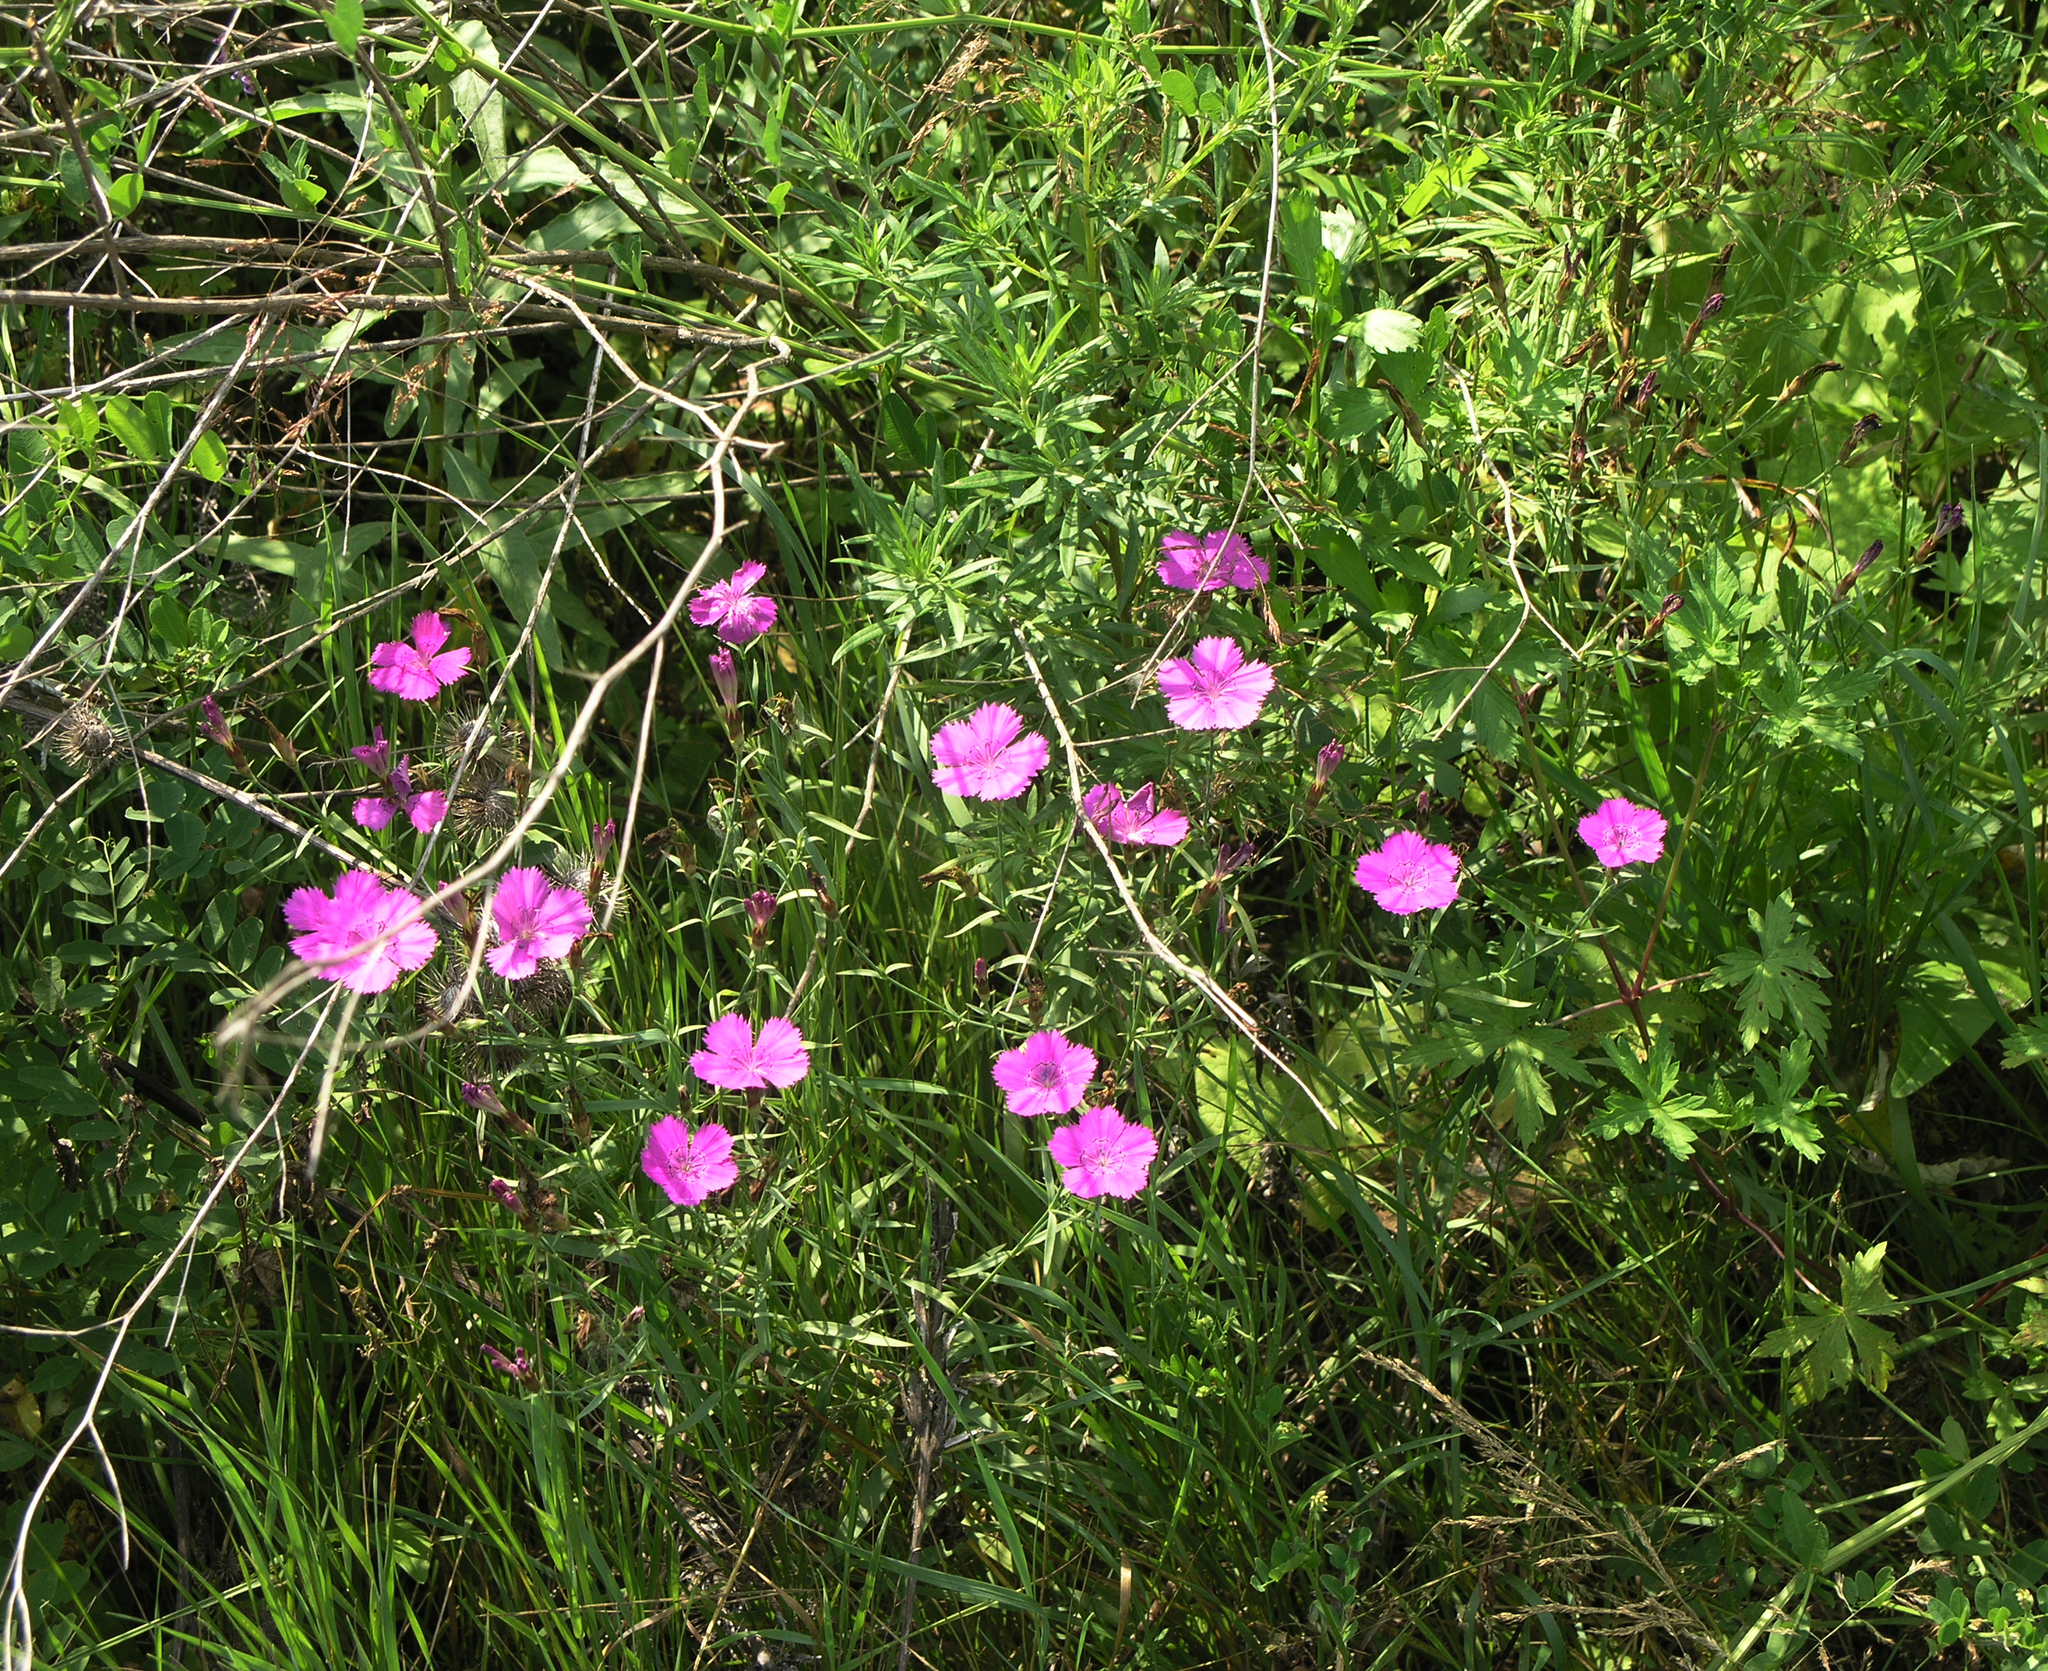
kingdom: Plantae
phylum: Tracheophyta
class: Magnoliopsida
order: Caryophyllales
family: Caryophyllaceae
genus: Dianthus
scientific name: Dianthus chinensis
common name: Rainbow pink
